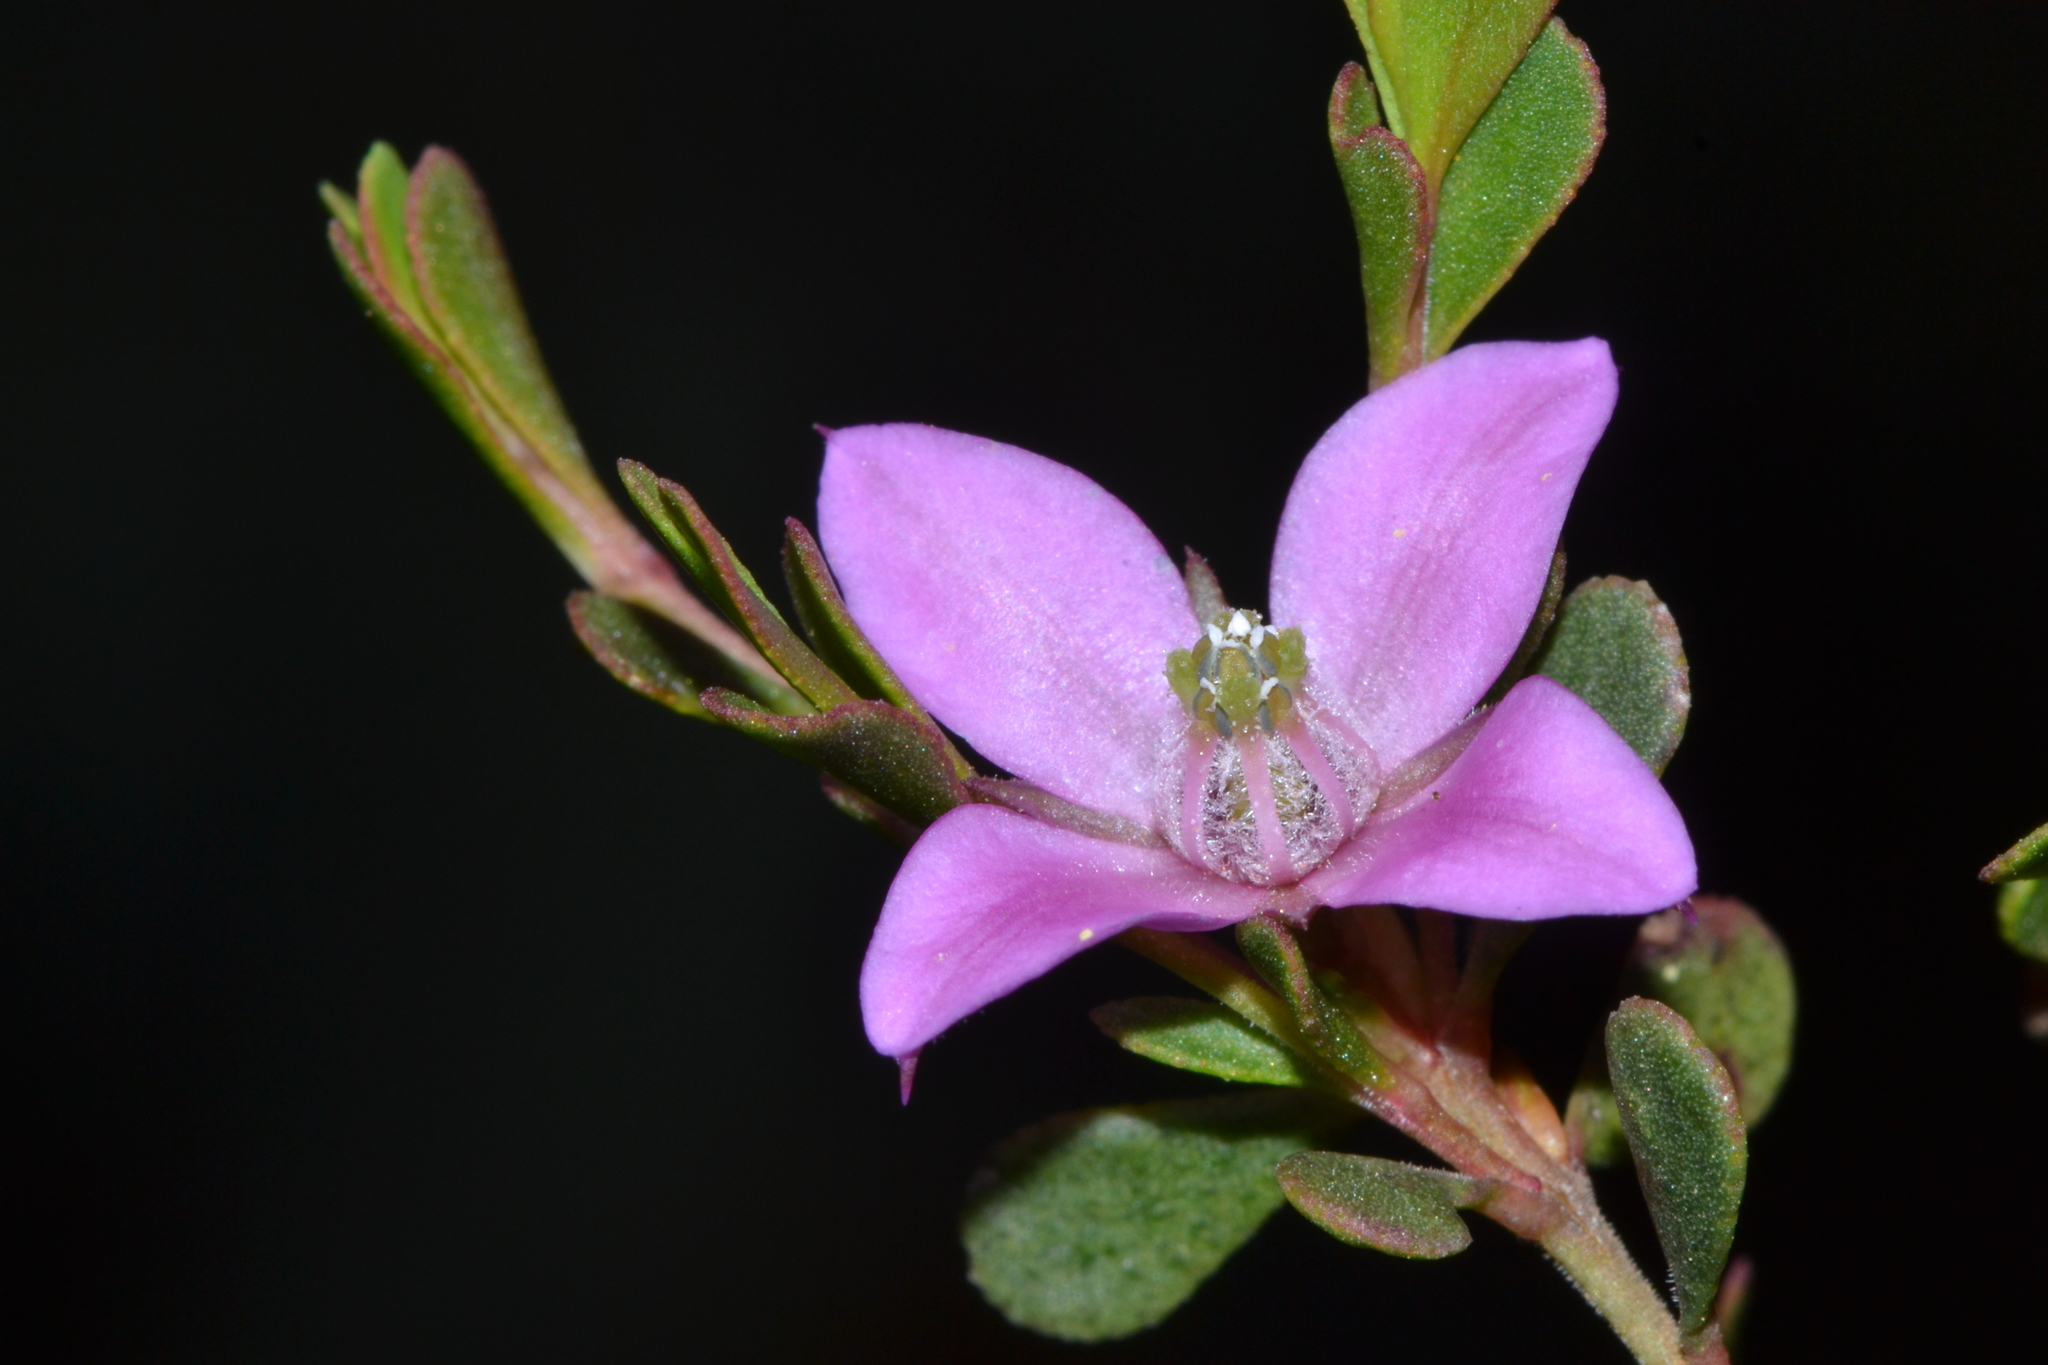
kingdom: Plantae
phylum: Tracheophyta
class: Magnoliopsida
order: Sapindales
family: Rutaceae
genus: Boronia
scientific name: Boronia crenulata
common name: Aniseed boronia
